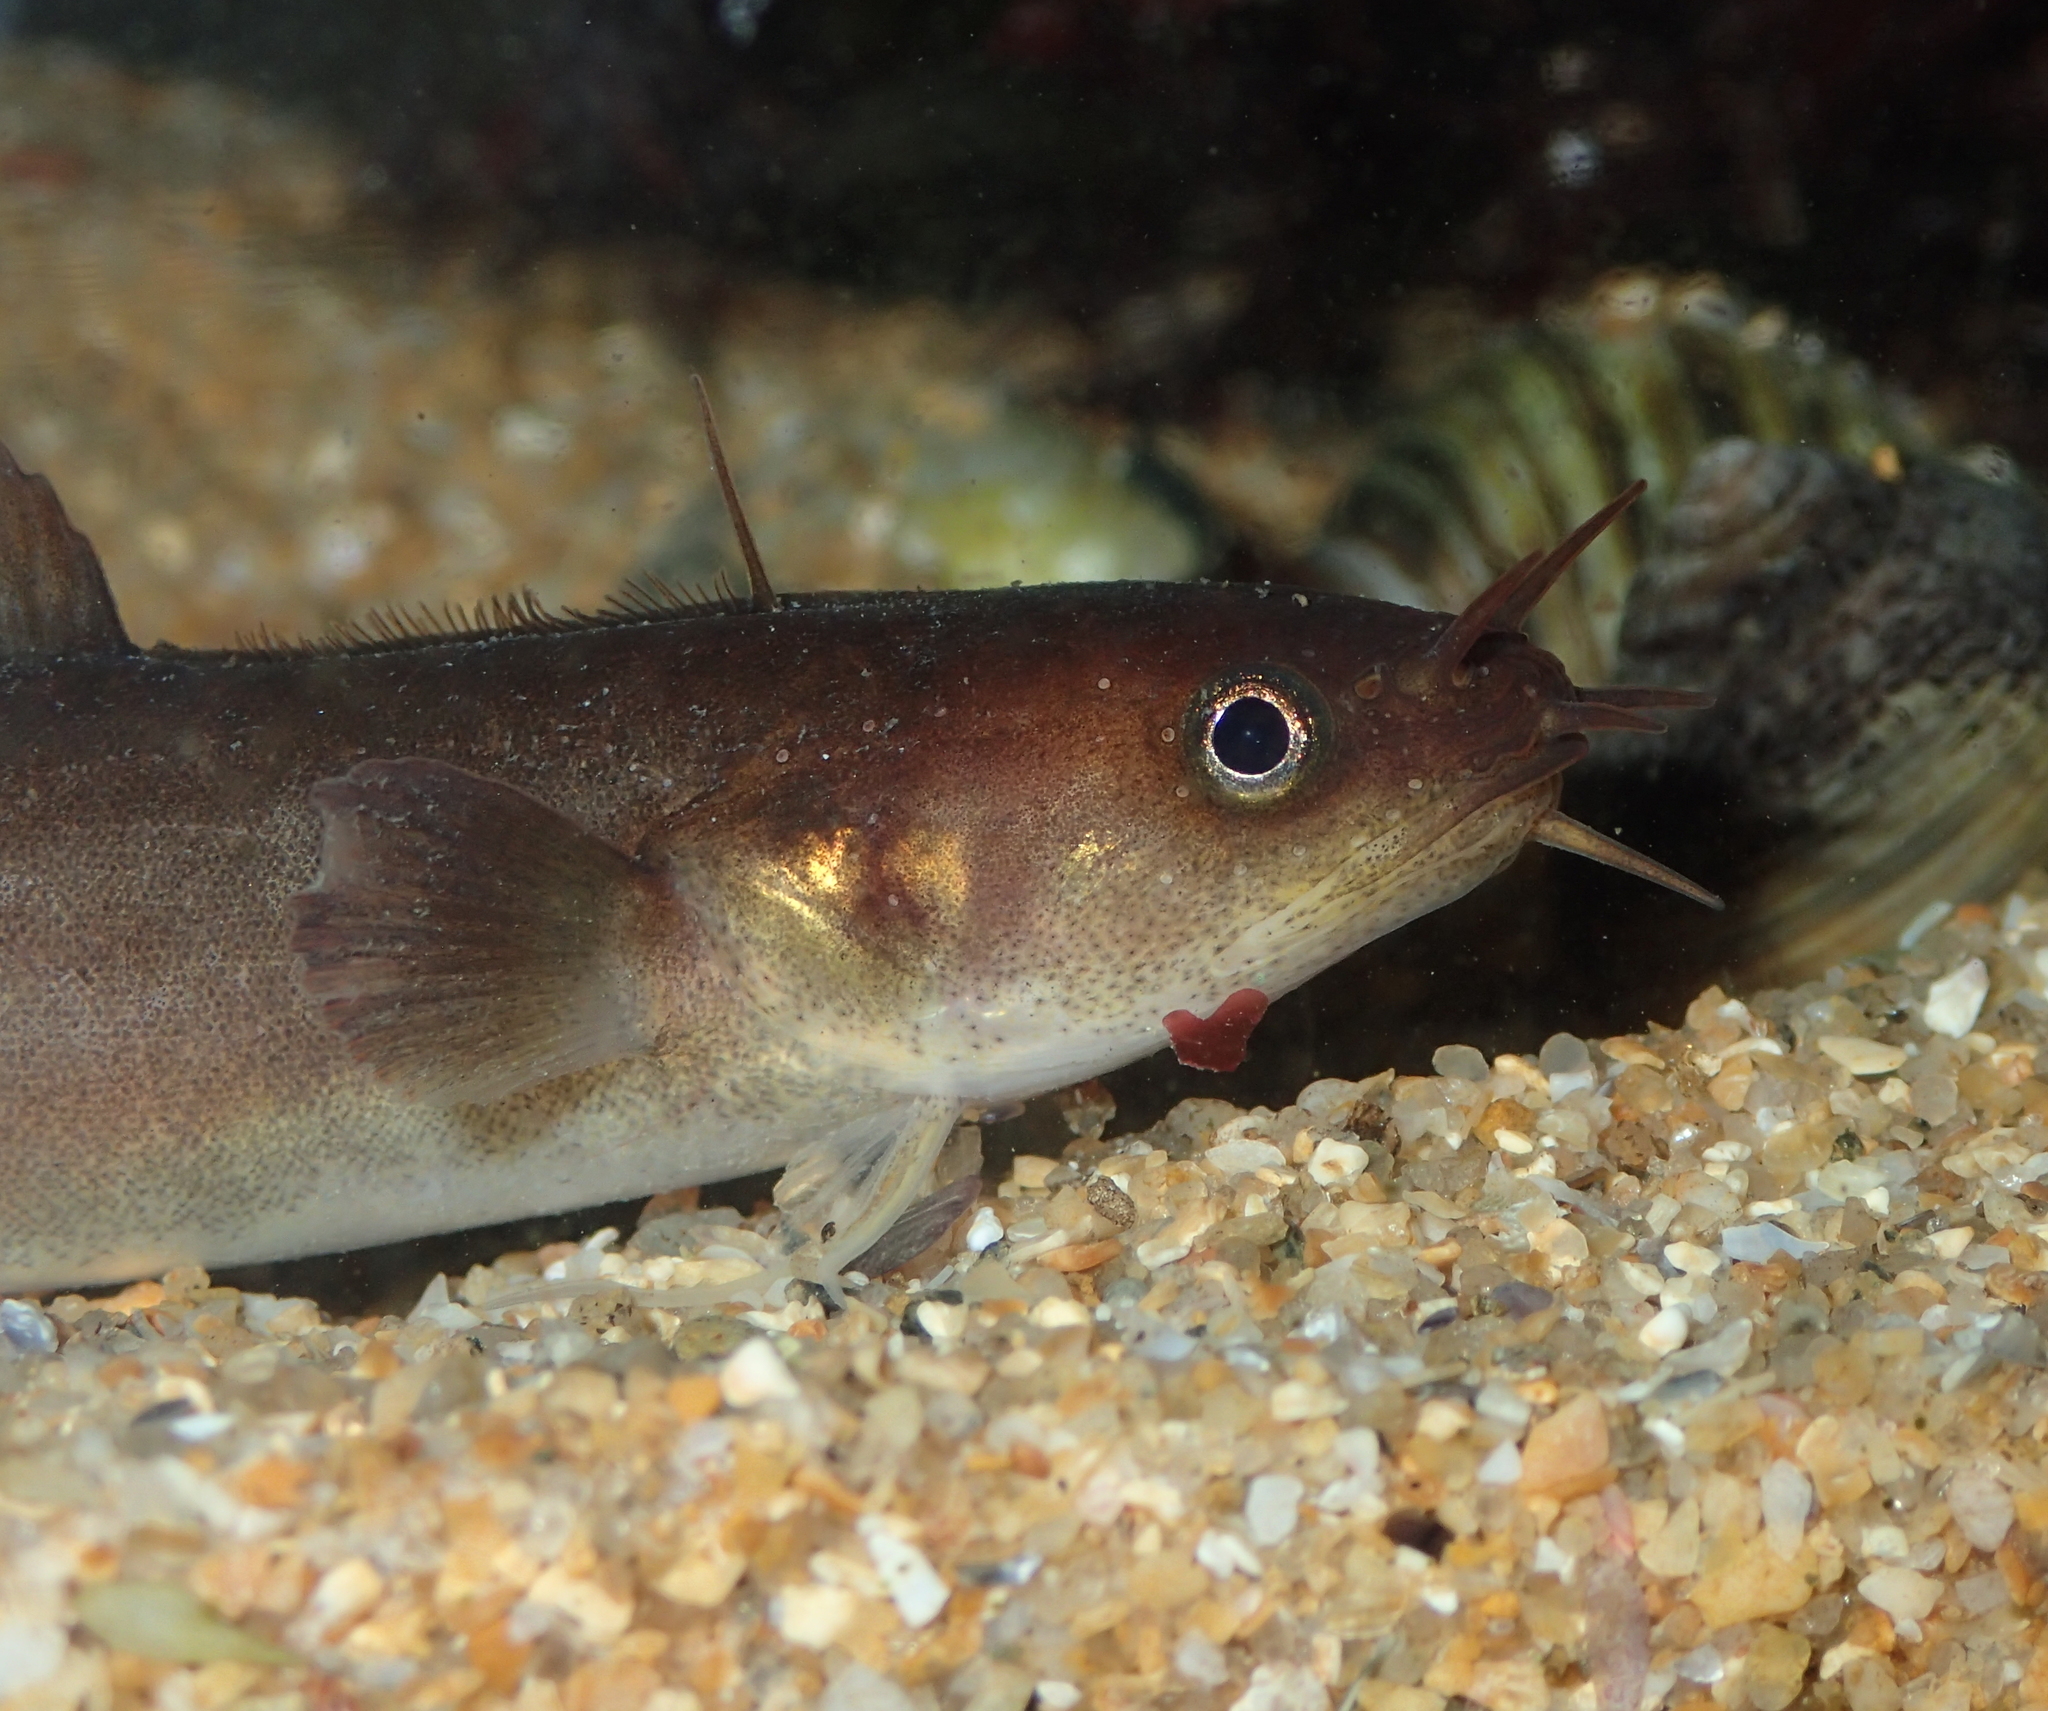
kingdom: Animalia
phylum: Chordata
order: Gadiformes
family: Lotidae
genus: Ciliata
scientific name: Ciliata mustela
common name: Five-bearded rockling
